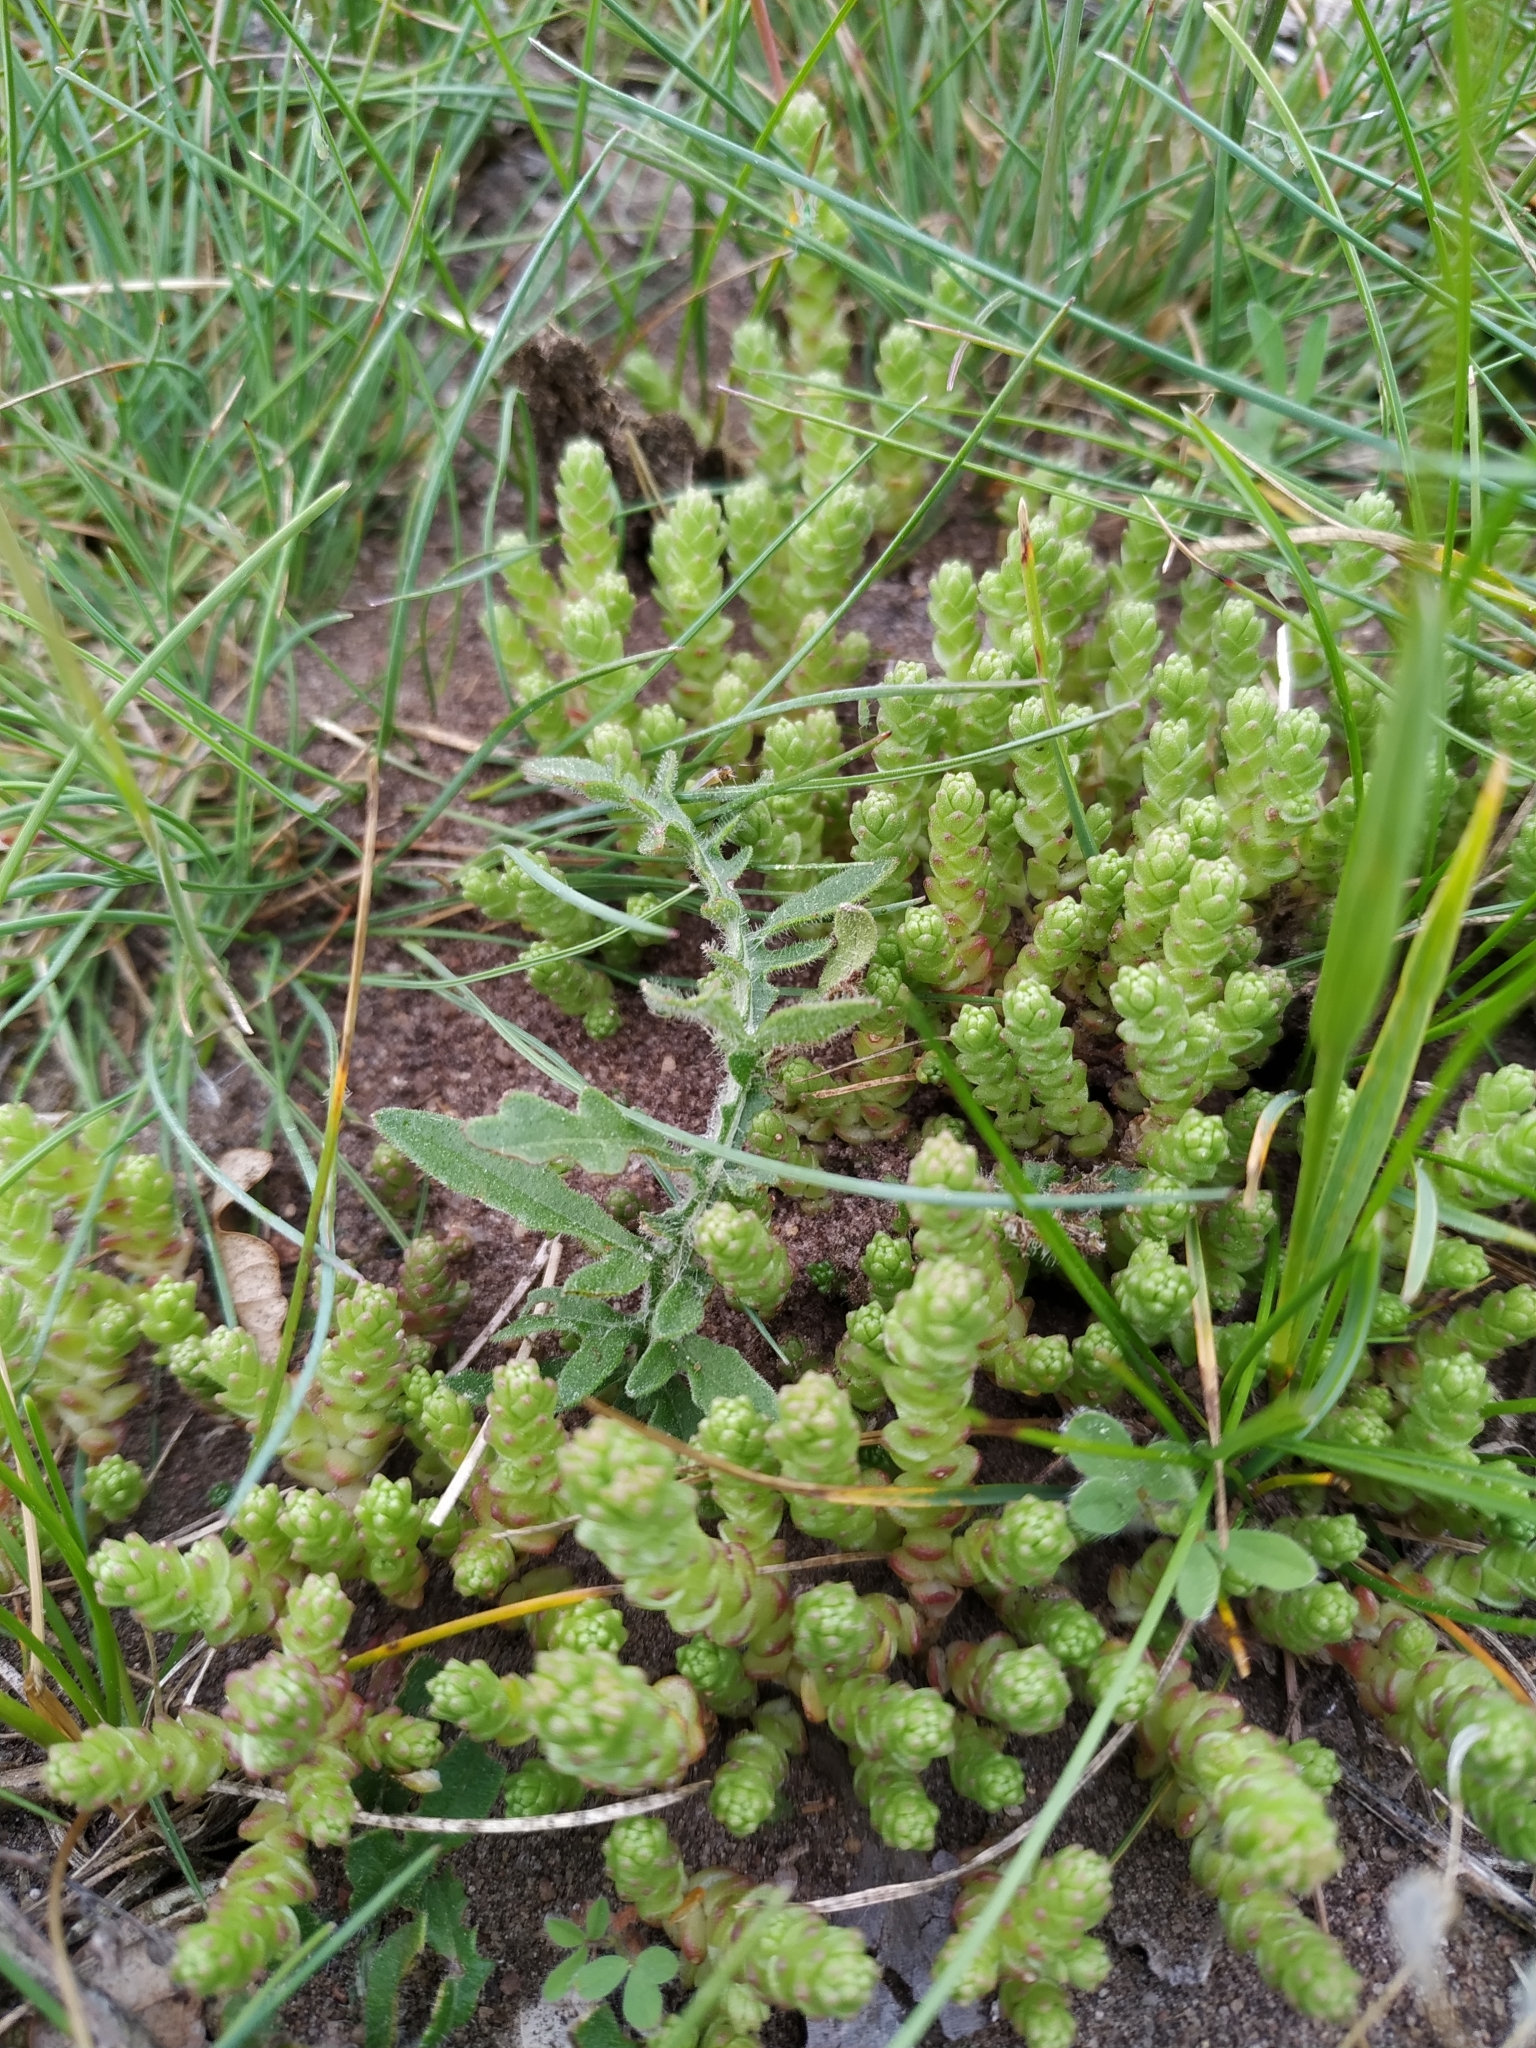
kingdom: Plantae
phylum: Tracheophyta
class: Magnoliopsida
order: Saxifragales
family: Crassulaceae
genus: Sedum
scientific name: Sedum acre
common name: Biting stonecrop
